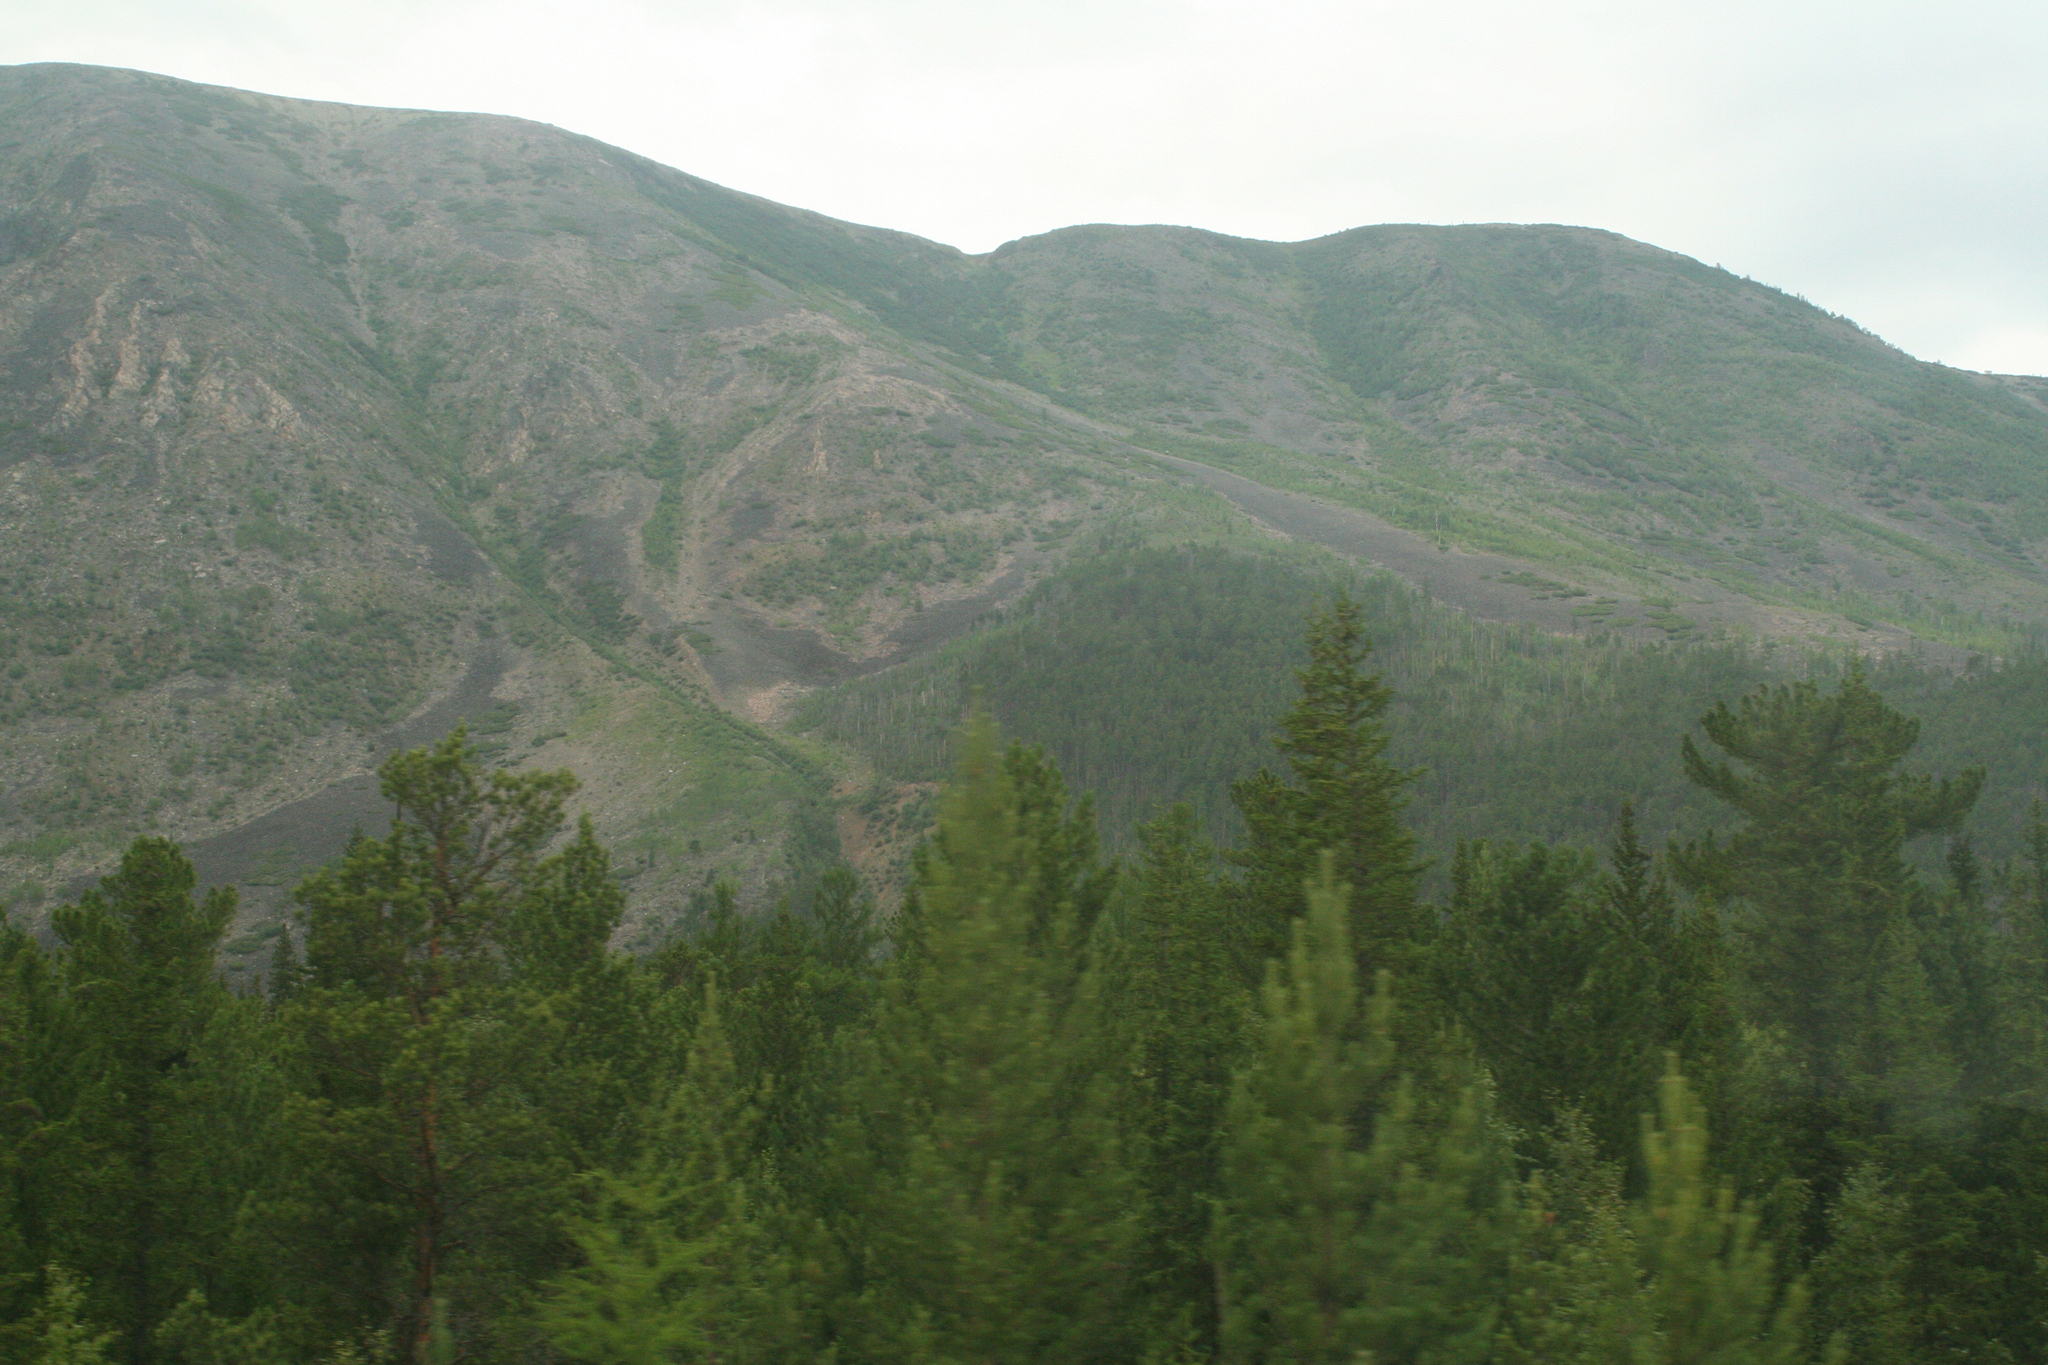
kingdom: Plantae
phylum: Tracheophyta
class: Pinopsida
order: Pinales
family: Pinaceae
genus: Pinus
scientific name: Pinus sylvestris
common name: Scots pine
